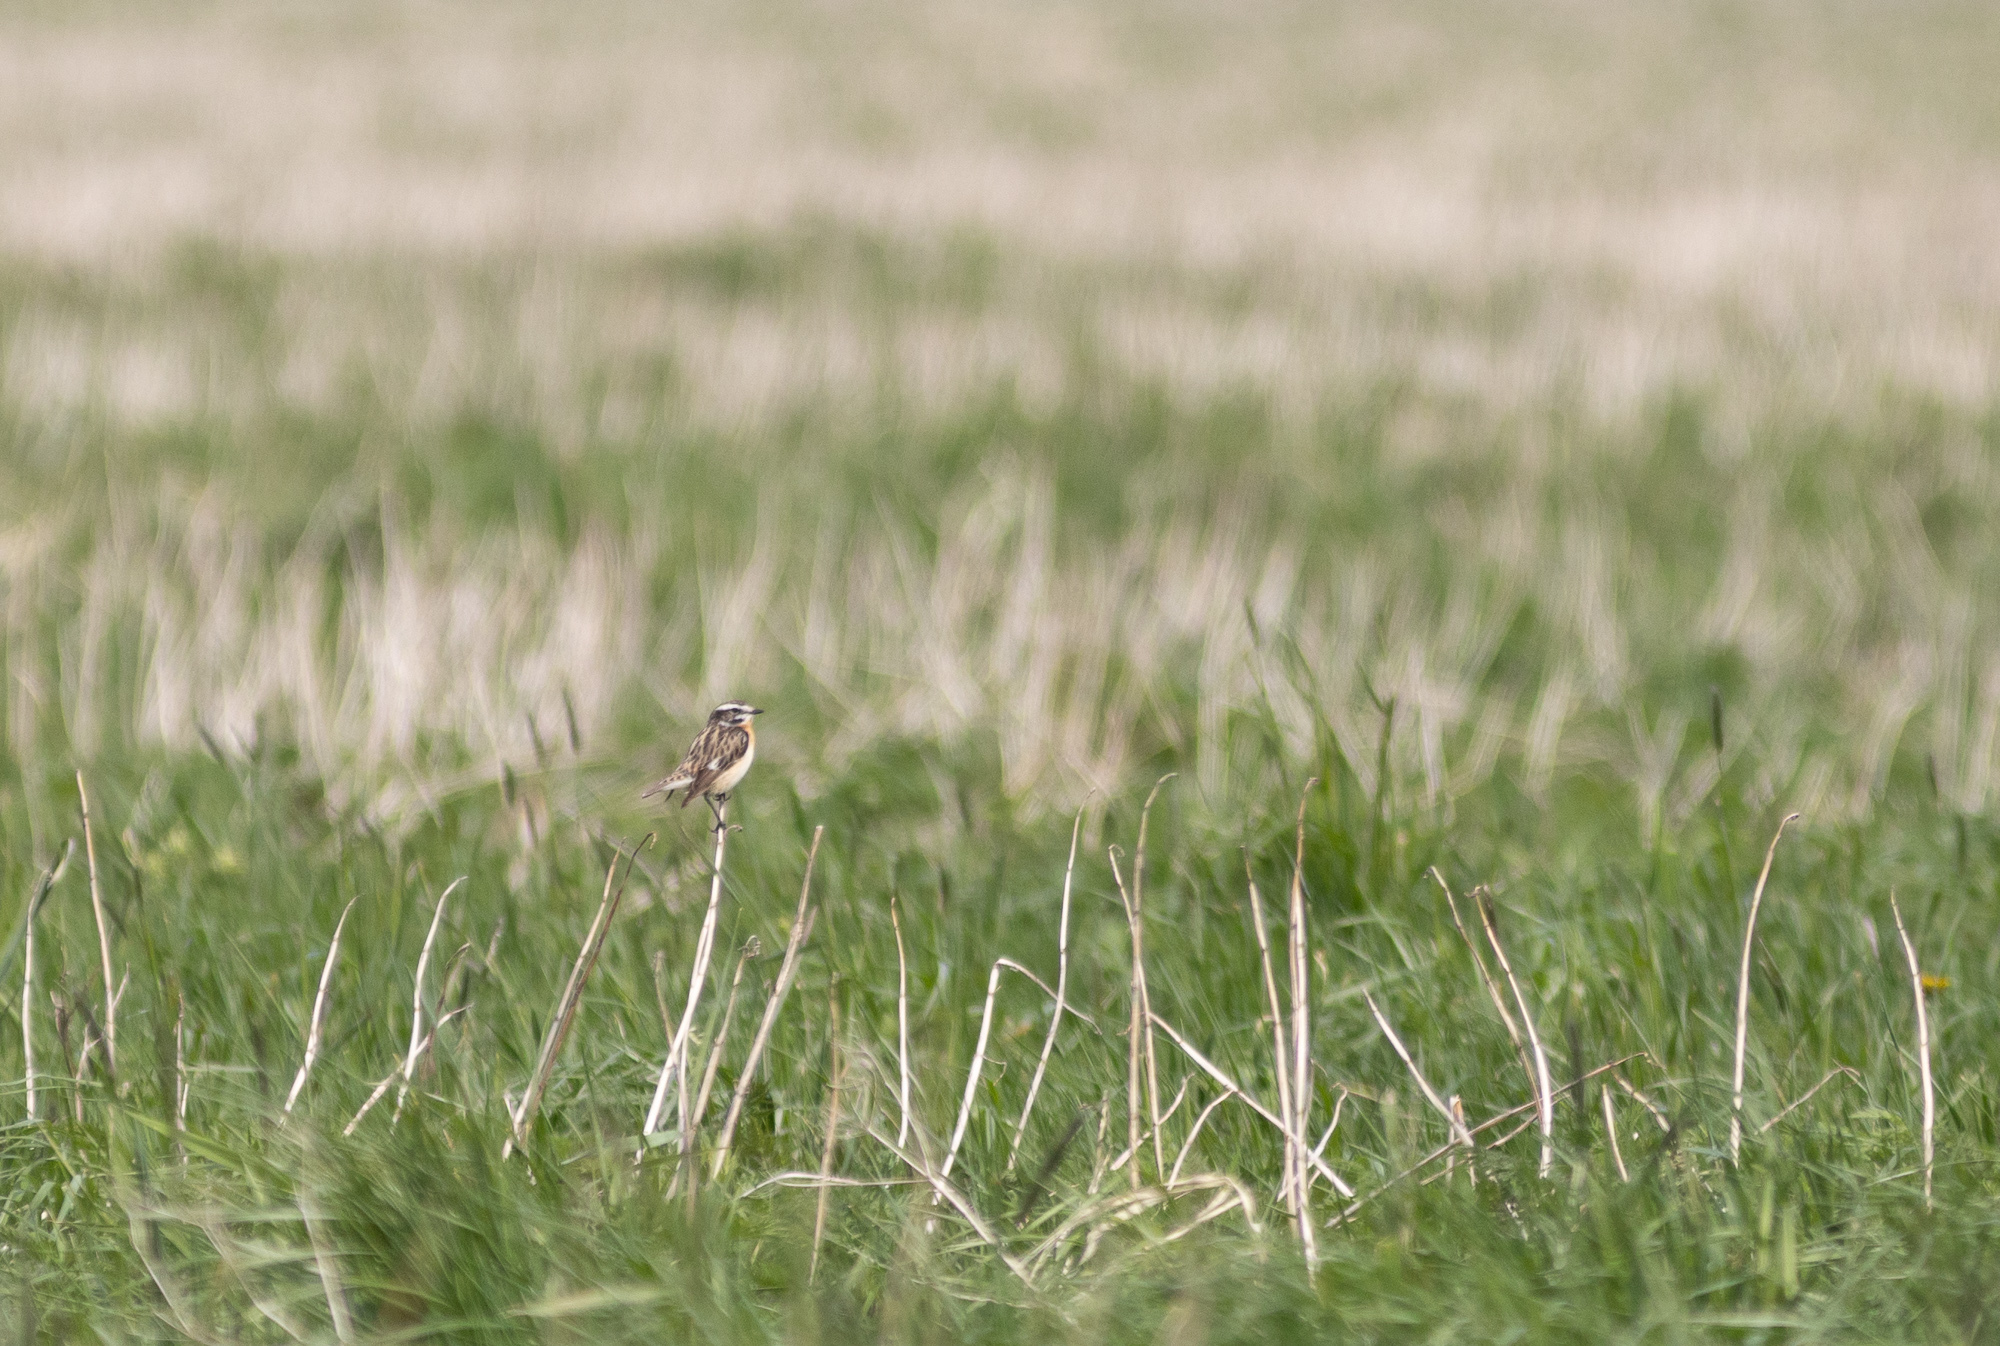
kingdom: Animalia
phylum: Chordata
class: Aves
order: Passeriformes
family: Muscicapidae
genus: Saxicola
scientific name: Saxicola rubetra
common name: Whinchat
